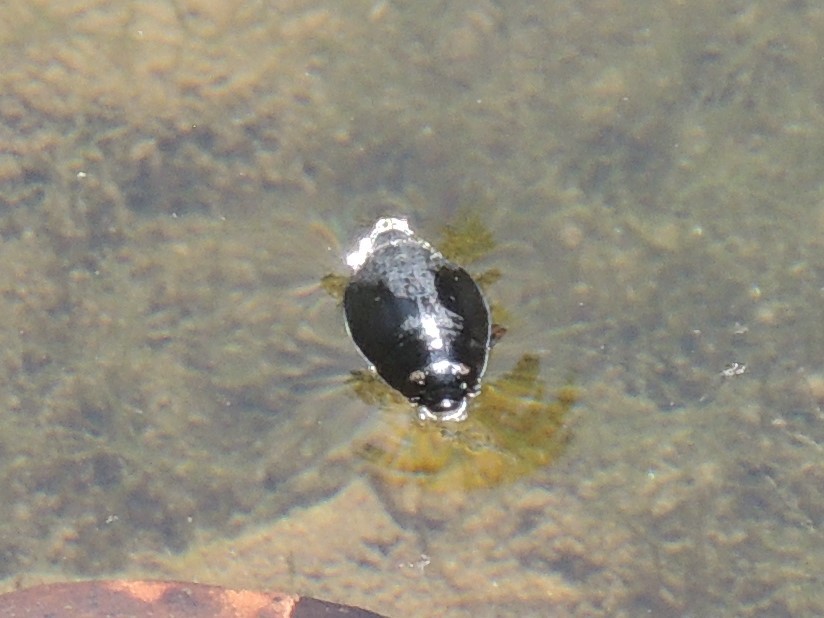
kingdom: Animalia
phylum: Arthropoda
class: Insecta
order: Coleoptera
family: Gyrinidae
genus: Dineutus
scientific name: Dineutus
